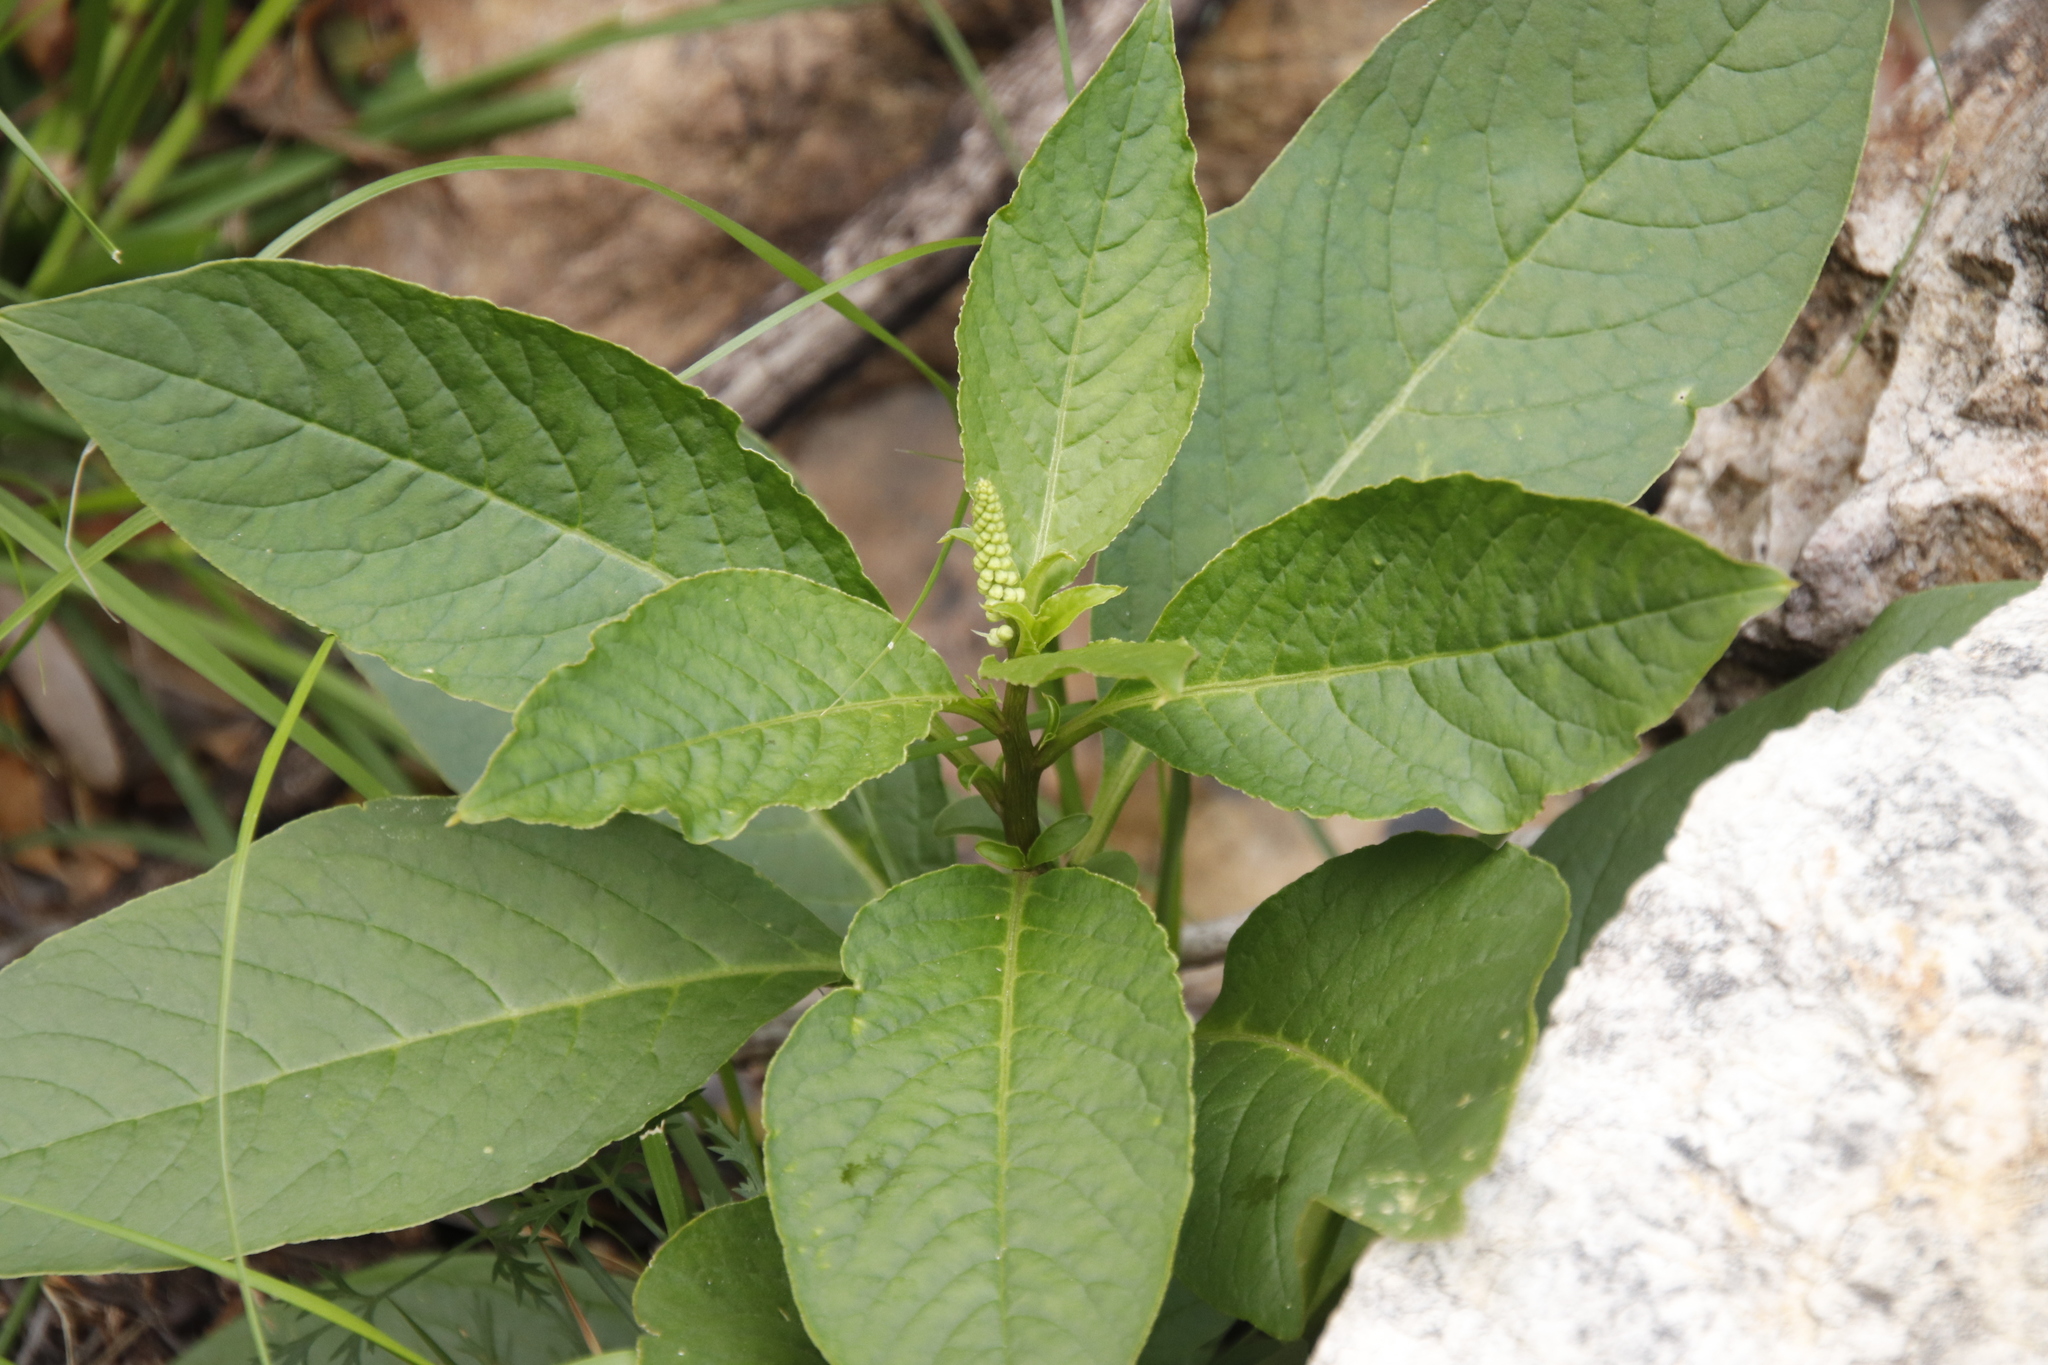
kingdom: Plantae
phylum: Tracheophyta
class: Magnoliopsida
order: Caryophyllales
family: Phytolaccaceae
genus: Phytolacca
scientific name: Phytolacca icosandra
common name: Button pokeweed
